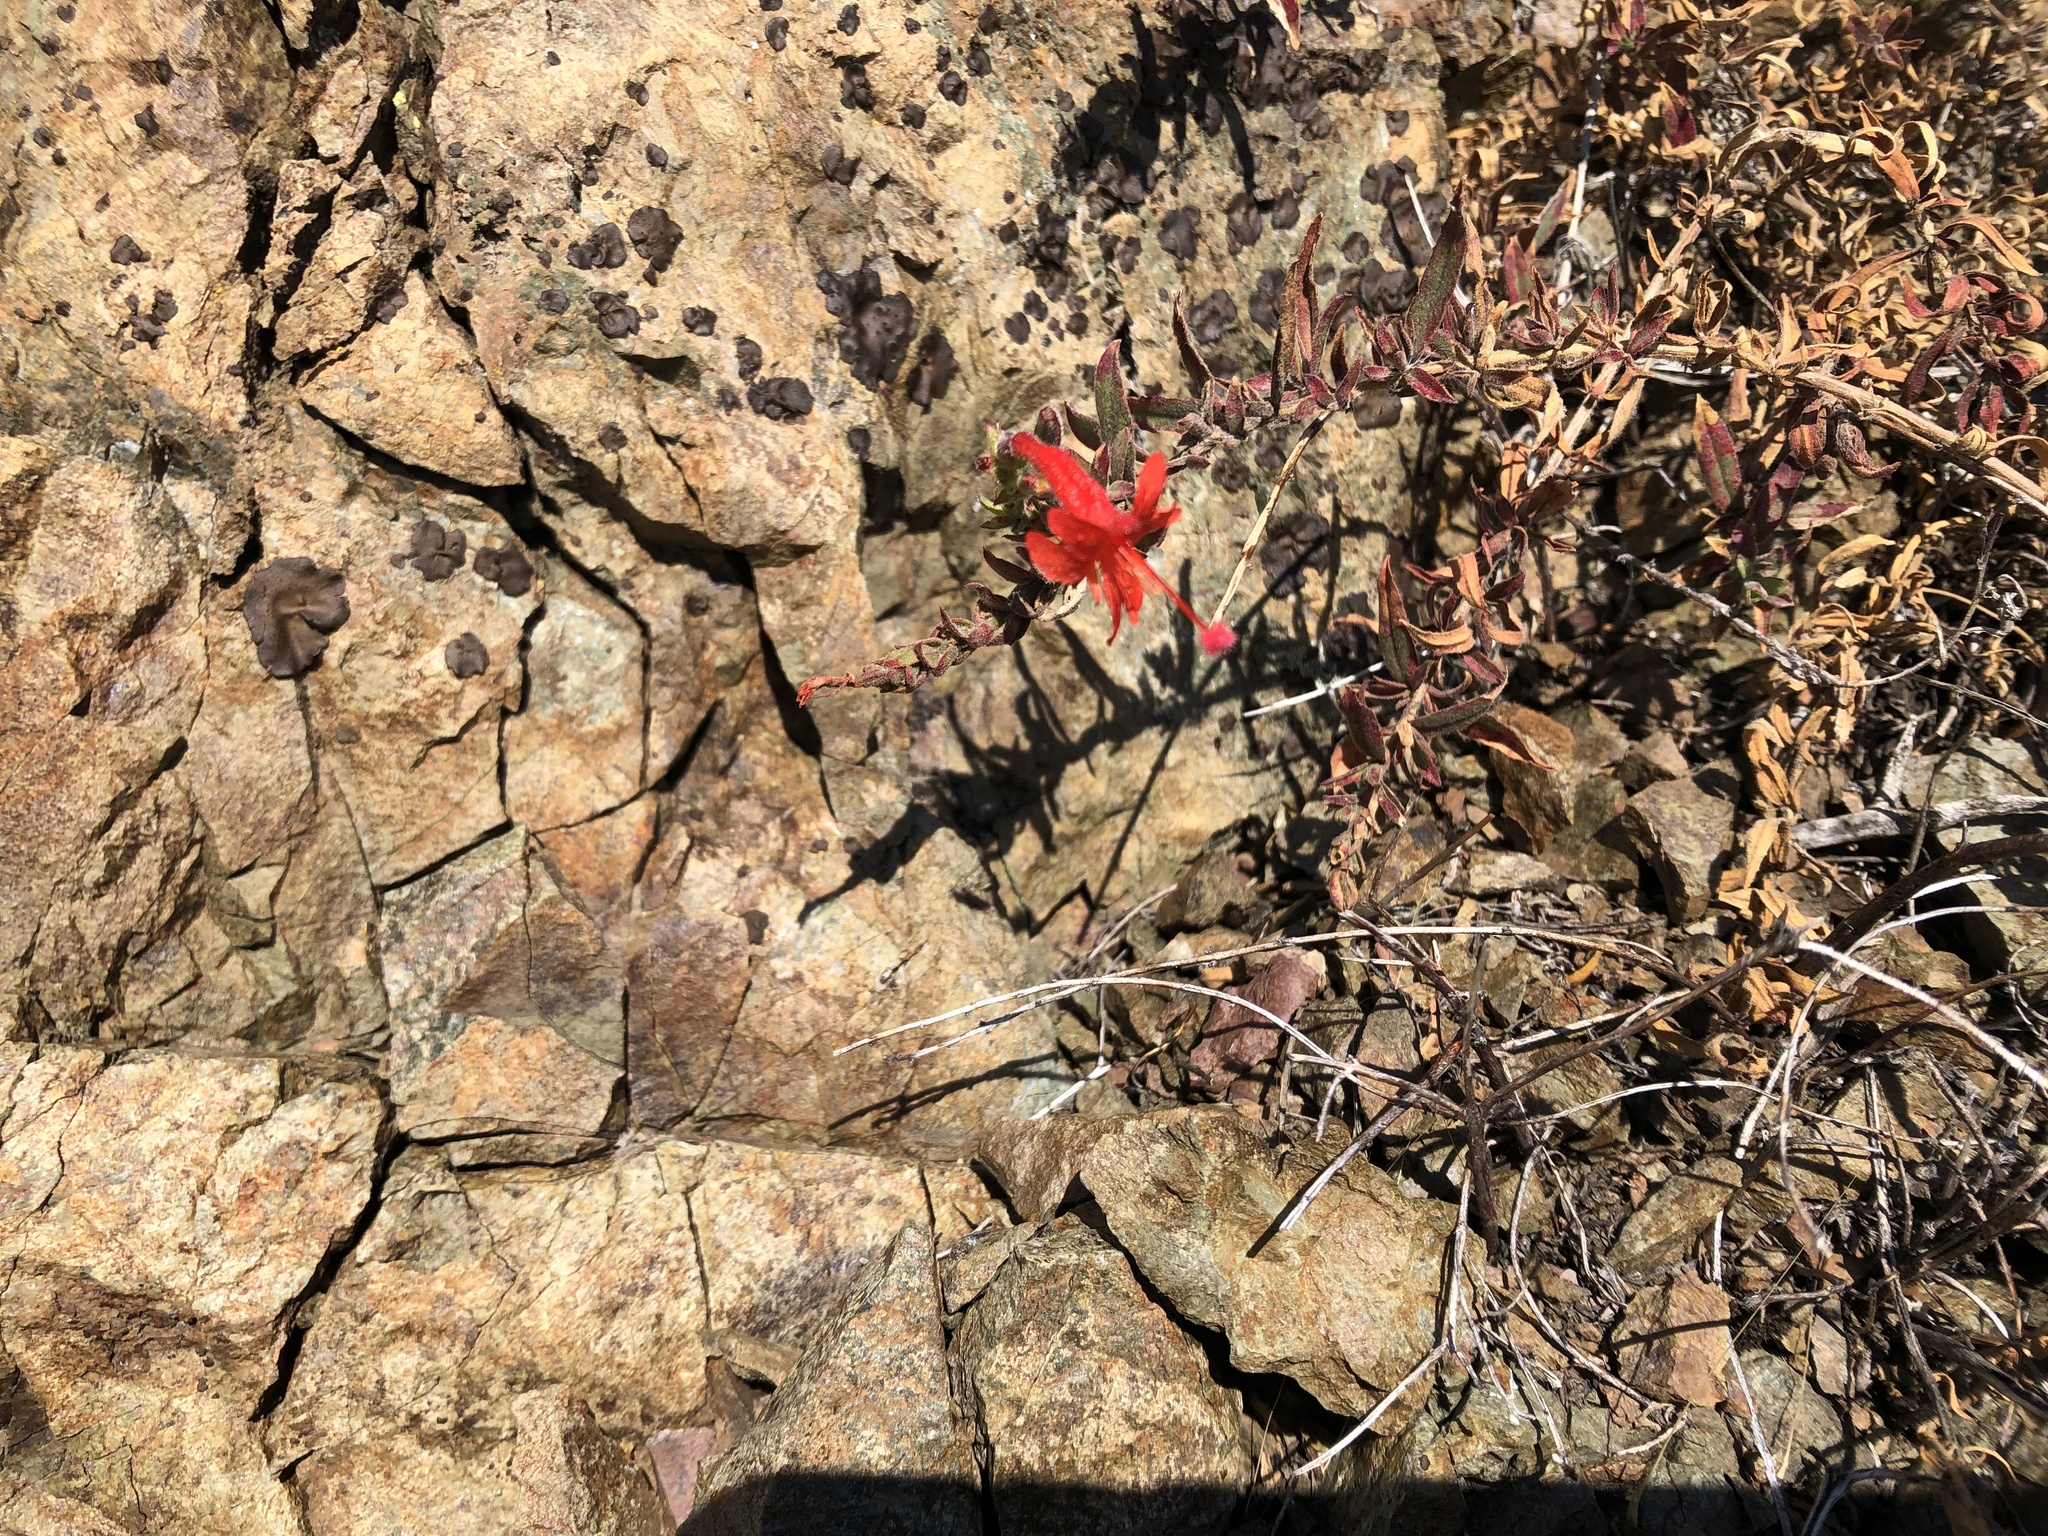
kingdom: Plantae
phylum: Tracheophyta
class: Magnoliopsida
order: Myrtales
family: Onagraceae
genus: Epilobium
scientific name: Epilobium canum
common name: California-fuchsia
